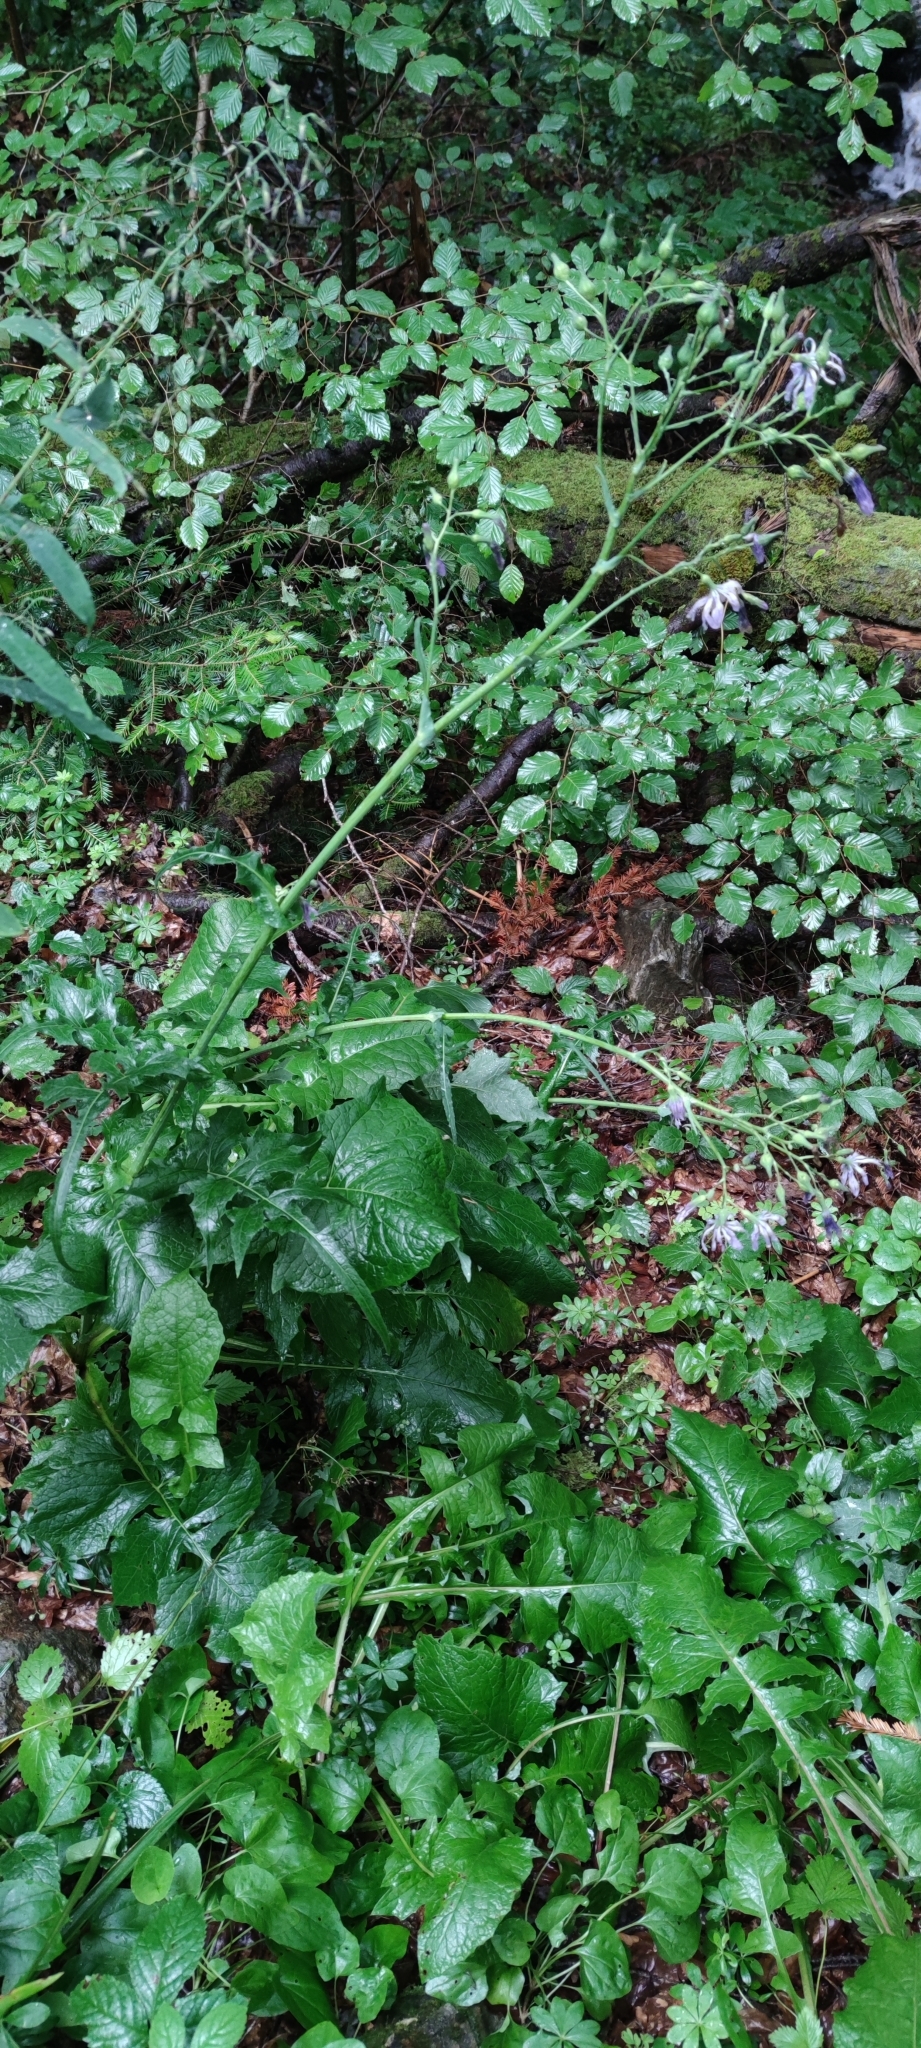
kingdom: Plantae
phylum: Tracheophyta
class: Magnoliopsida
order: Asterales
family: Asteraceae
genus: Lactuca
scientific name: Lactuca plumieri
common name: Hairless blue-sow-thistle
